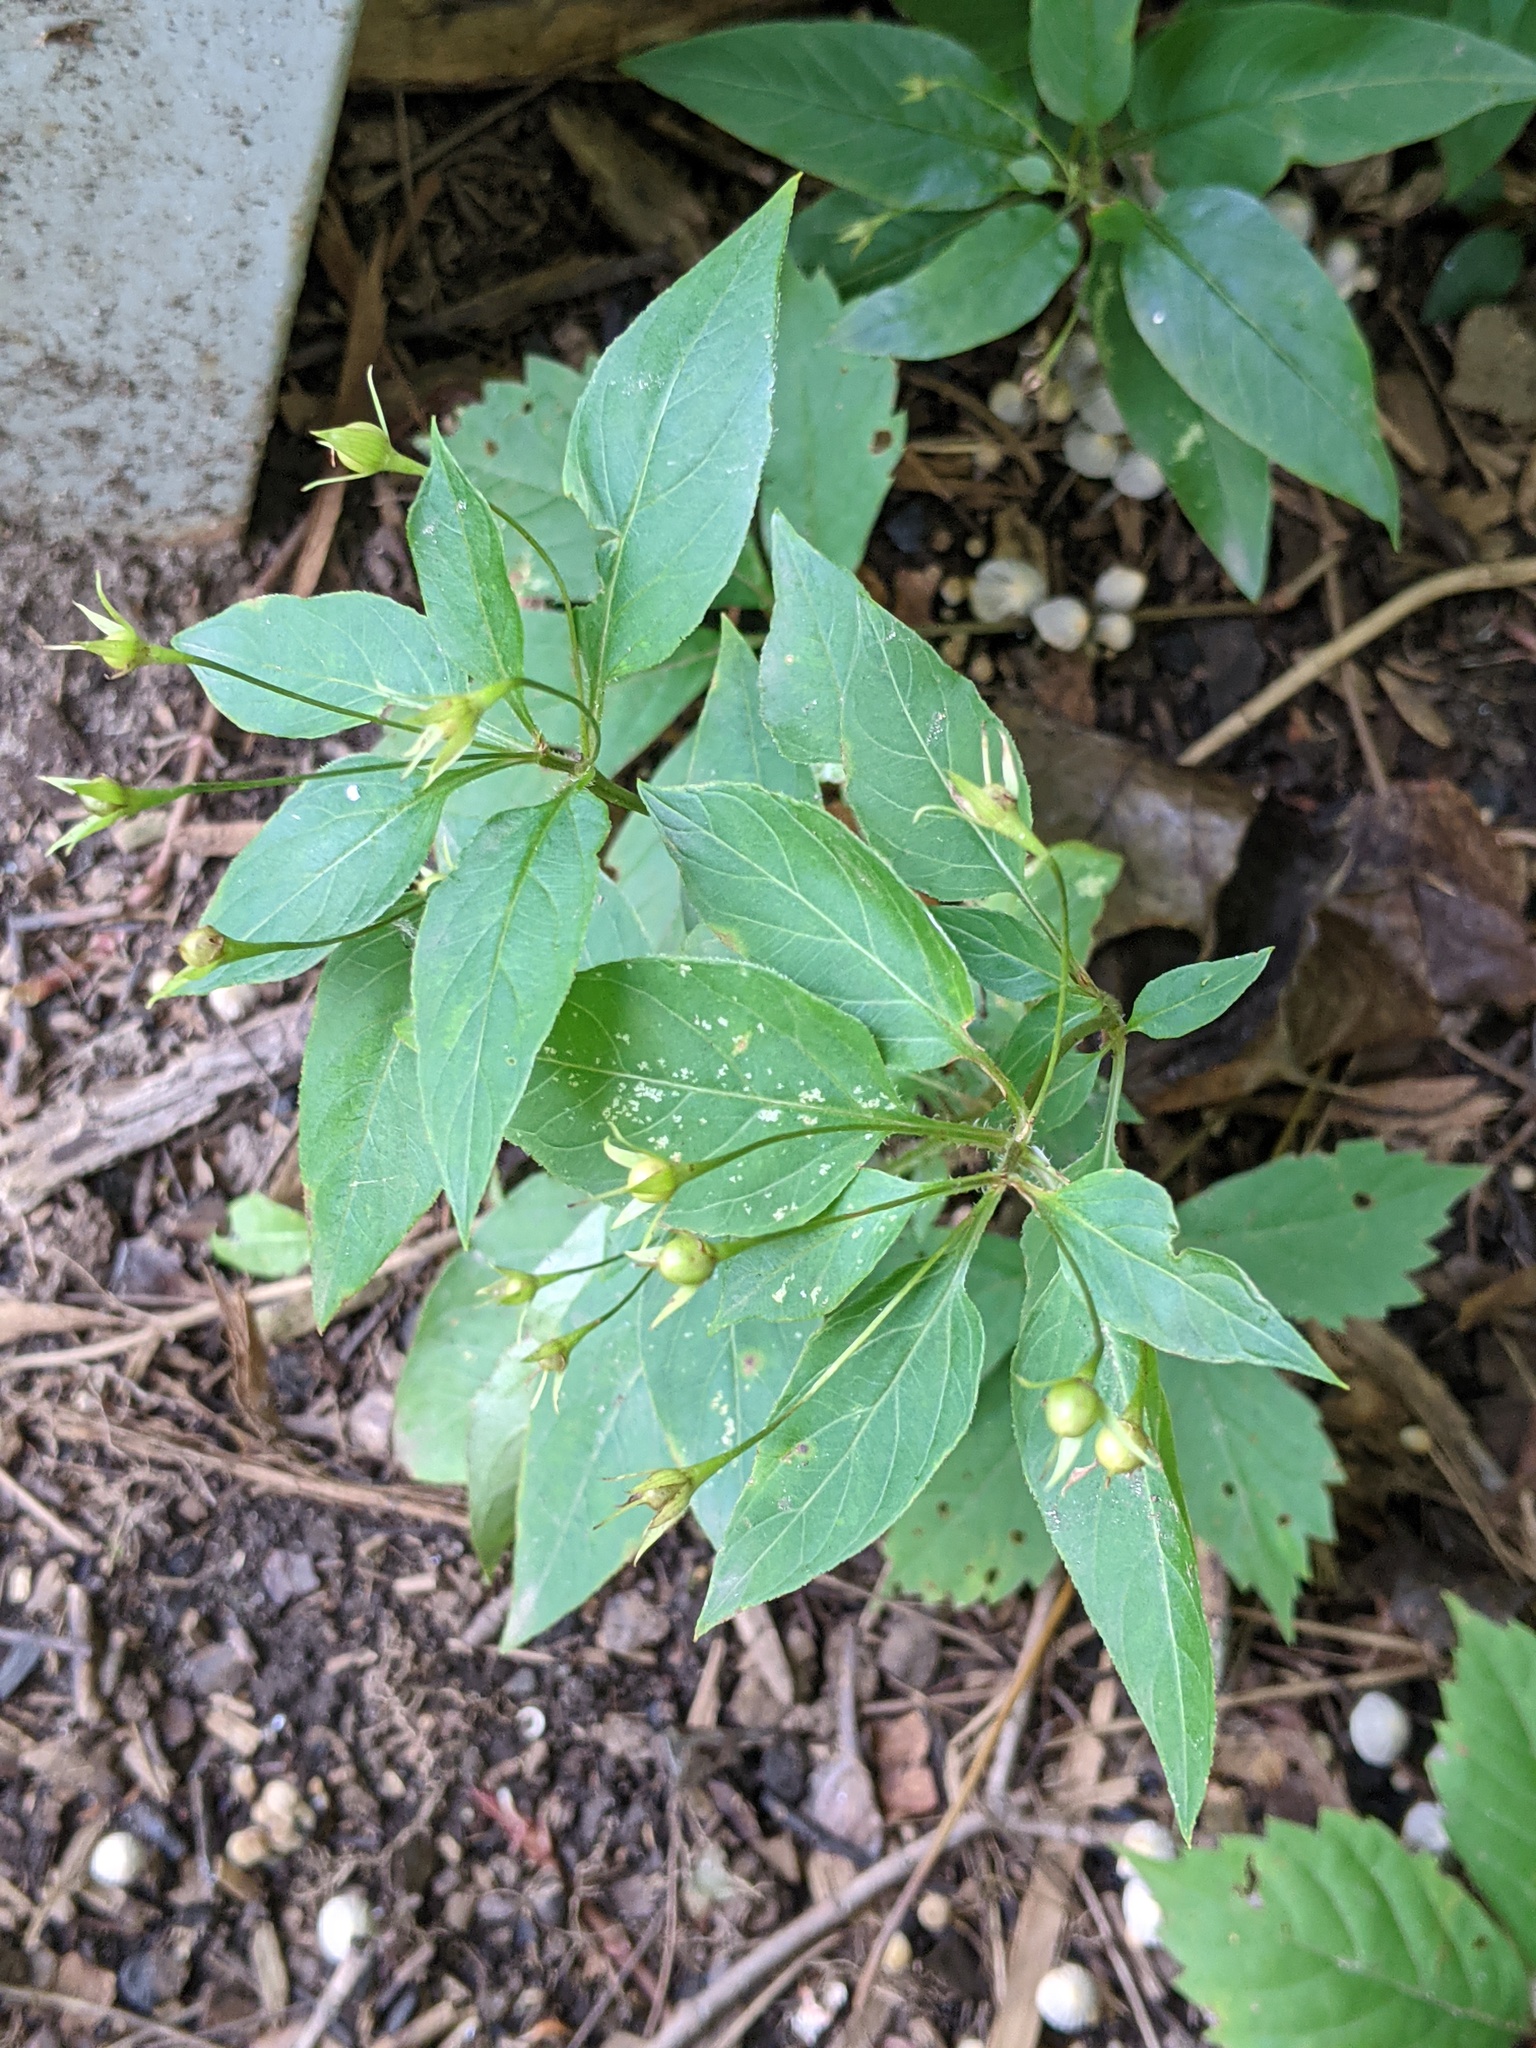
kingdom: Plantae
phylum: Tracheophyta
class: Magnoliopsida
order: Ericales
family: Primulaceae
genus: Lysimachia
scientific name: Lysimachia ciliata
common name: Fringed loosestrife
